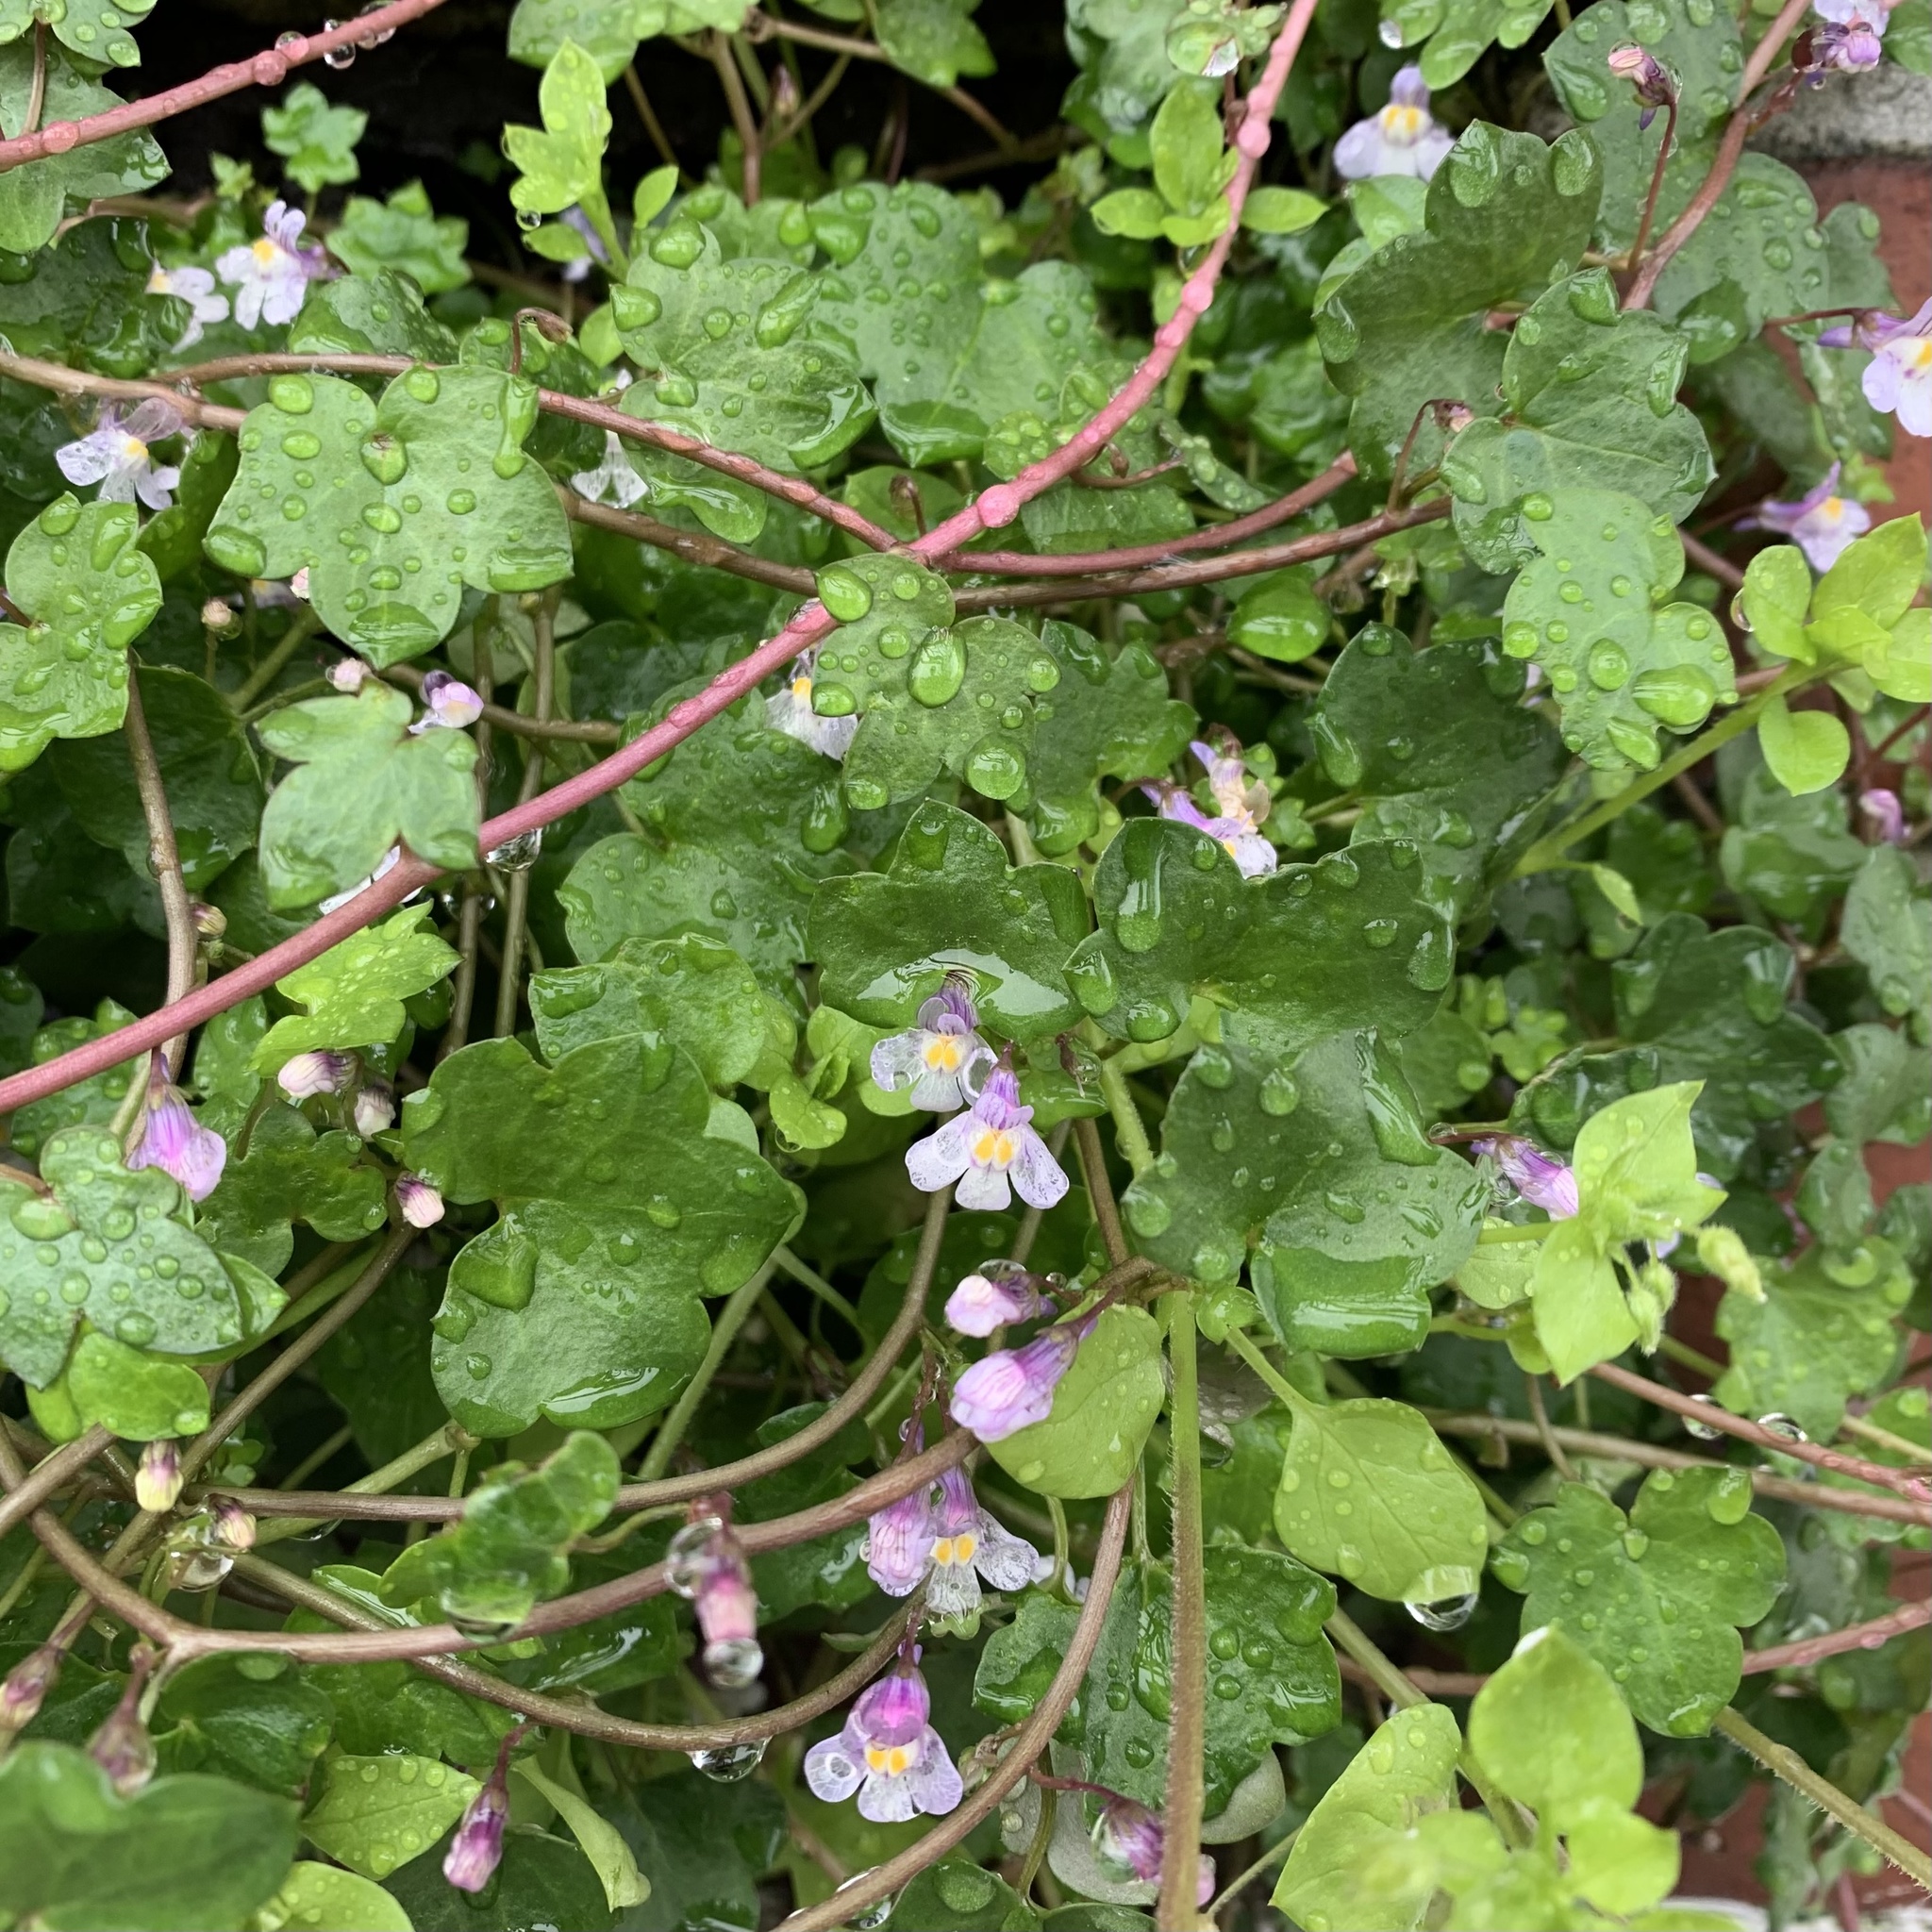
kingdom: Plantae
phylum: Tracheophyta
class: Magnoliopsida
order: Lamiales
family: Plantaginaceae
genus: Cymbalaria
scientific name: Cymbalaria muralis
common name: Ivy-leaved toadflax
